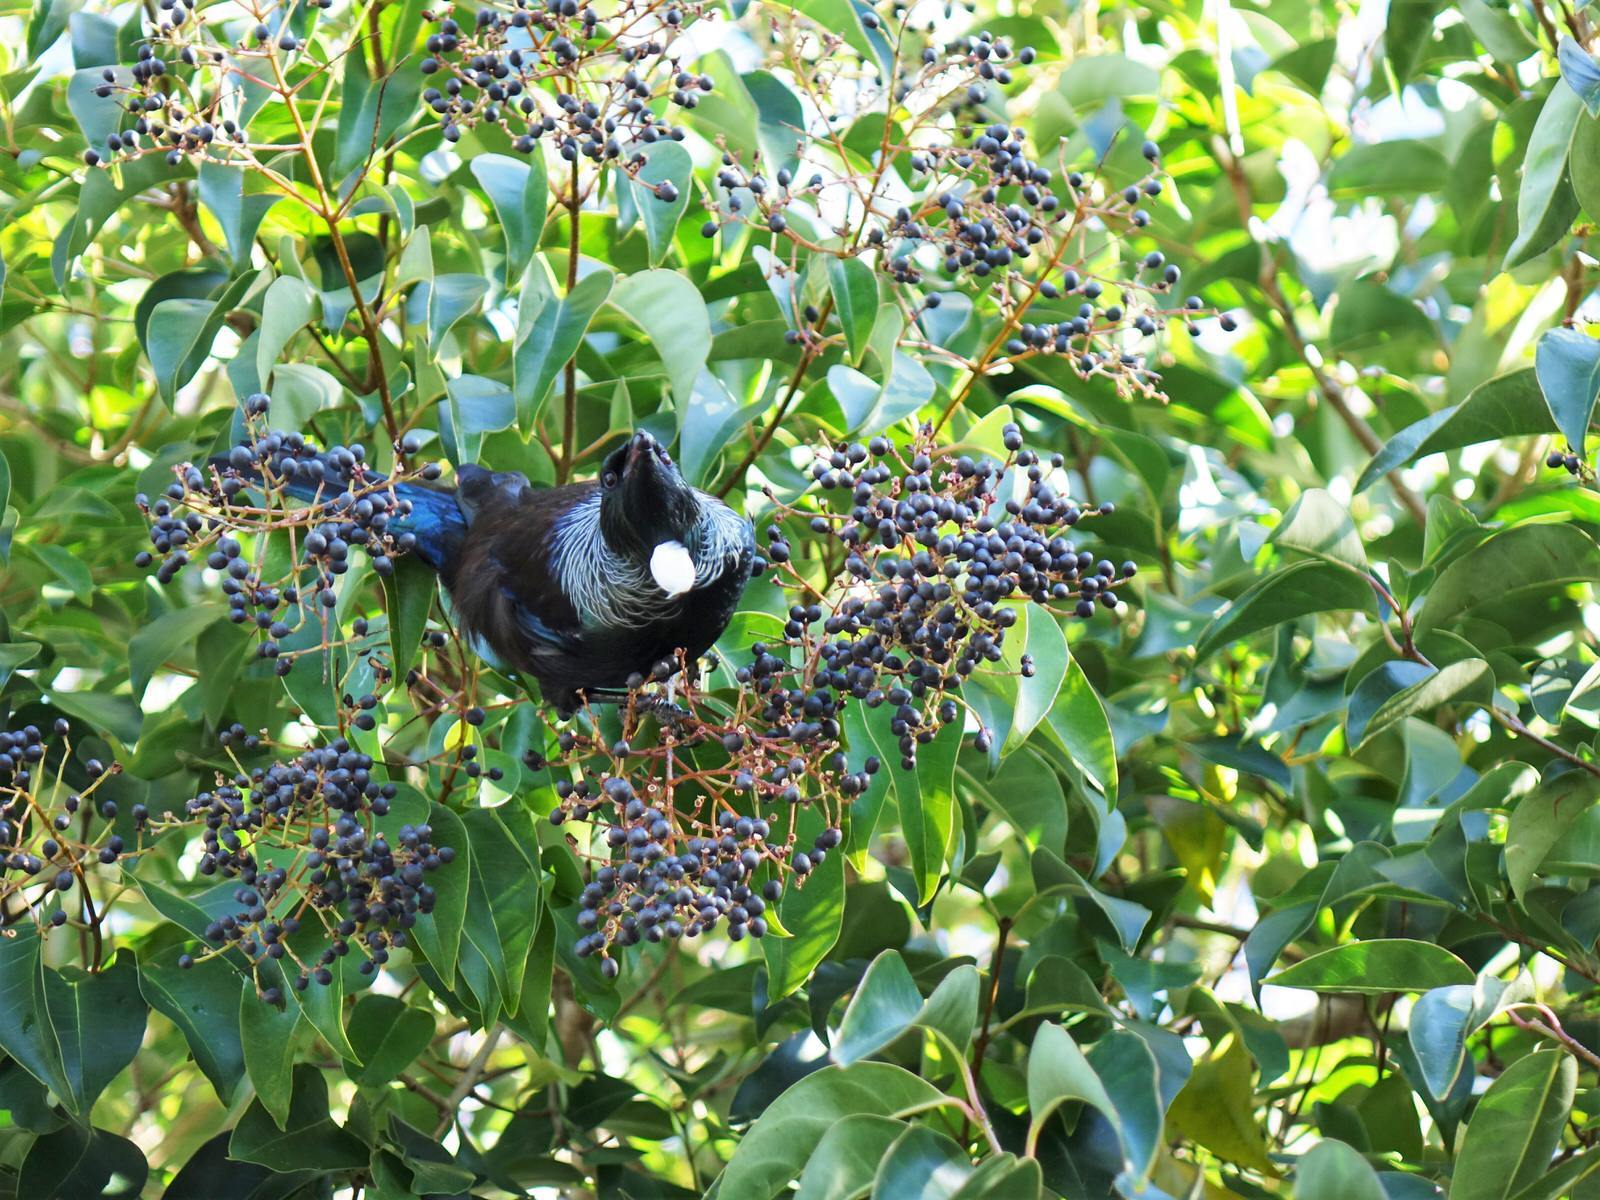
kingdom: Animalia
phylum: Chordata
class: Aves
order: Passeriformes
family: Meliphagidae
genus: Prosthemadera
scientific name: Prosthemadera novaeseelandiae
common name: Tui
